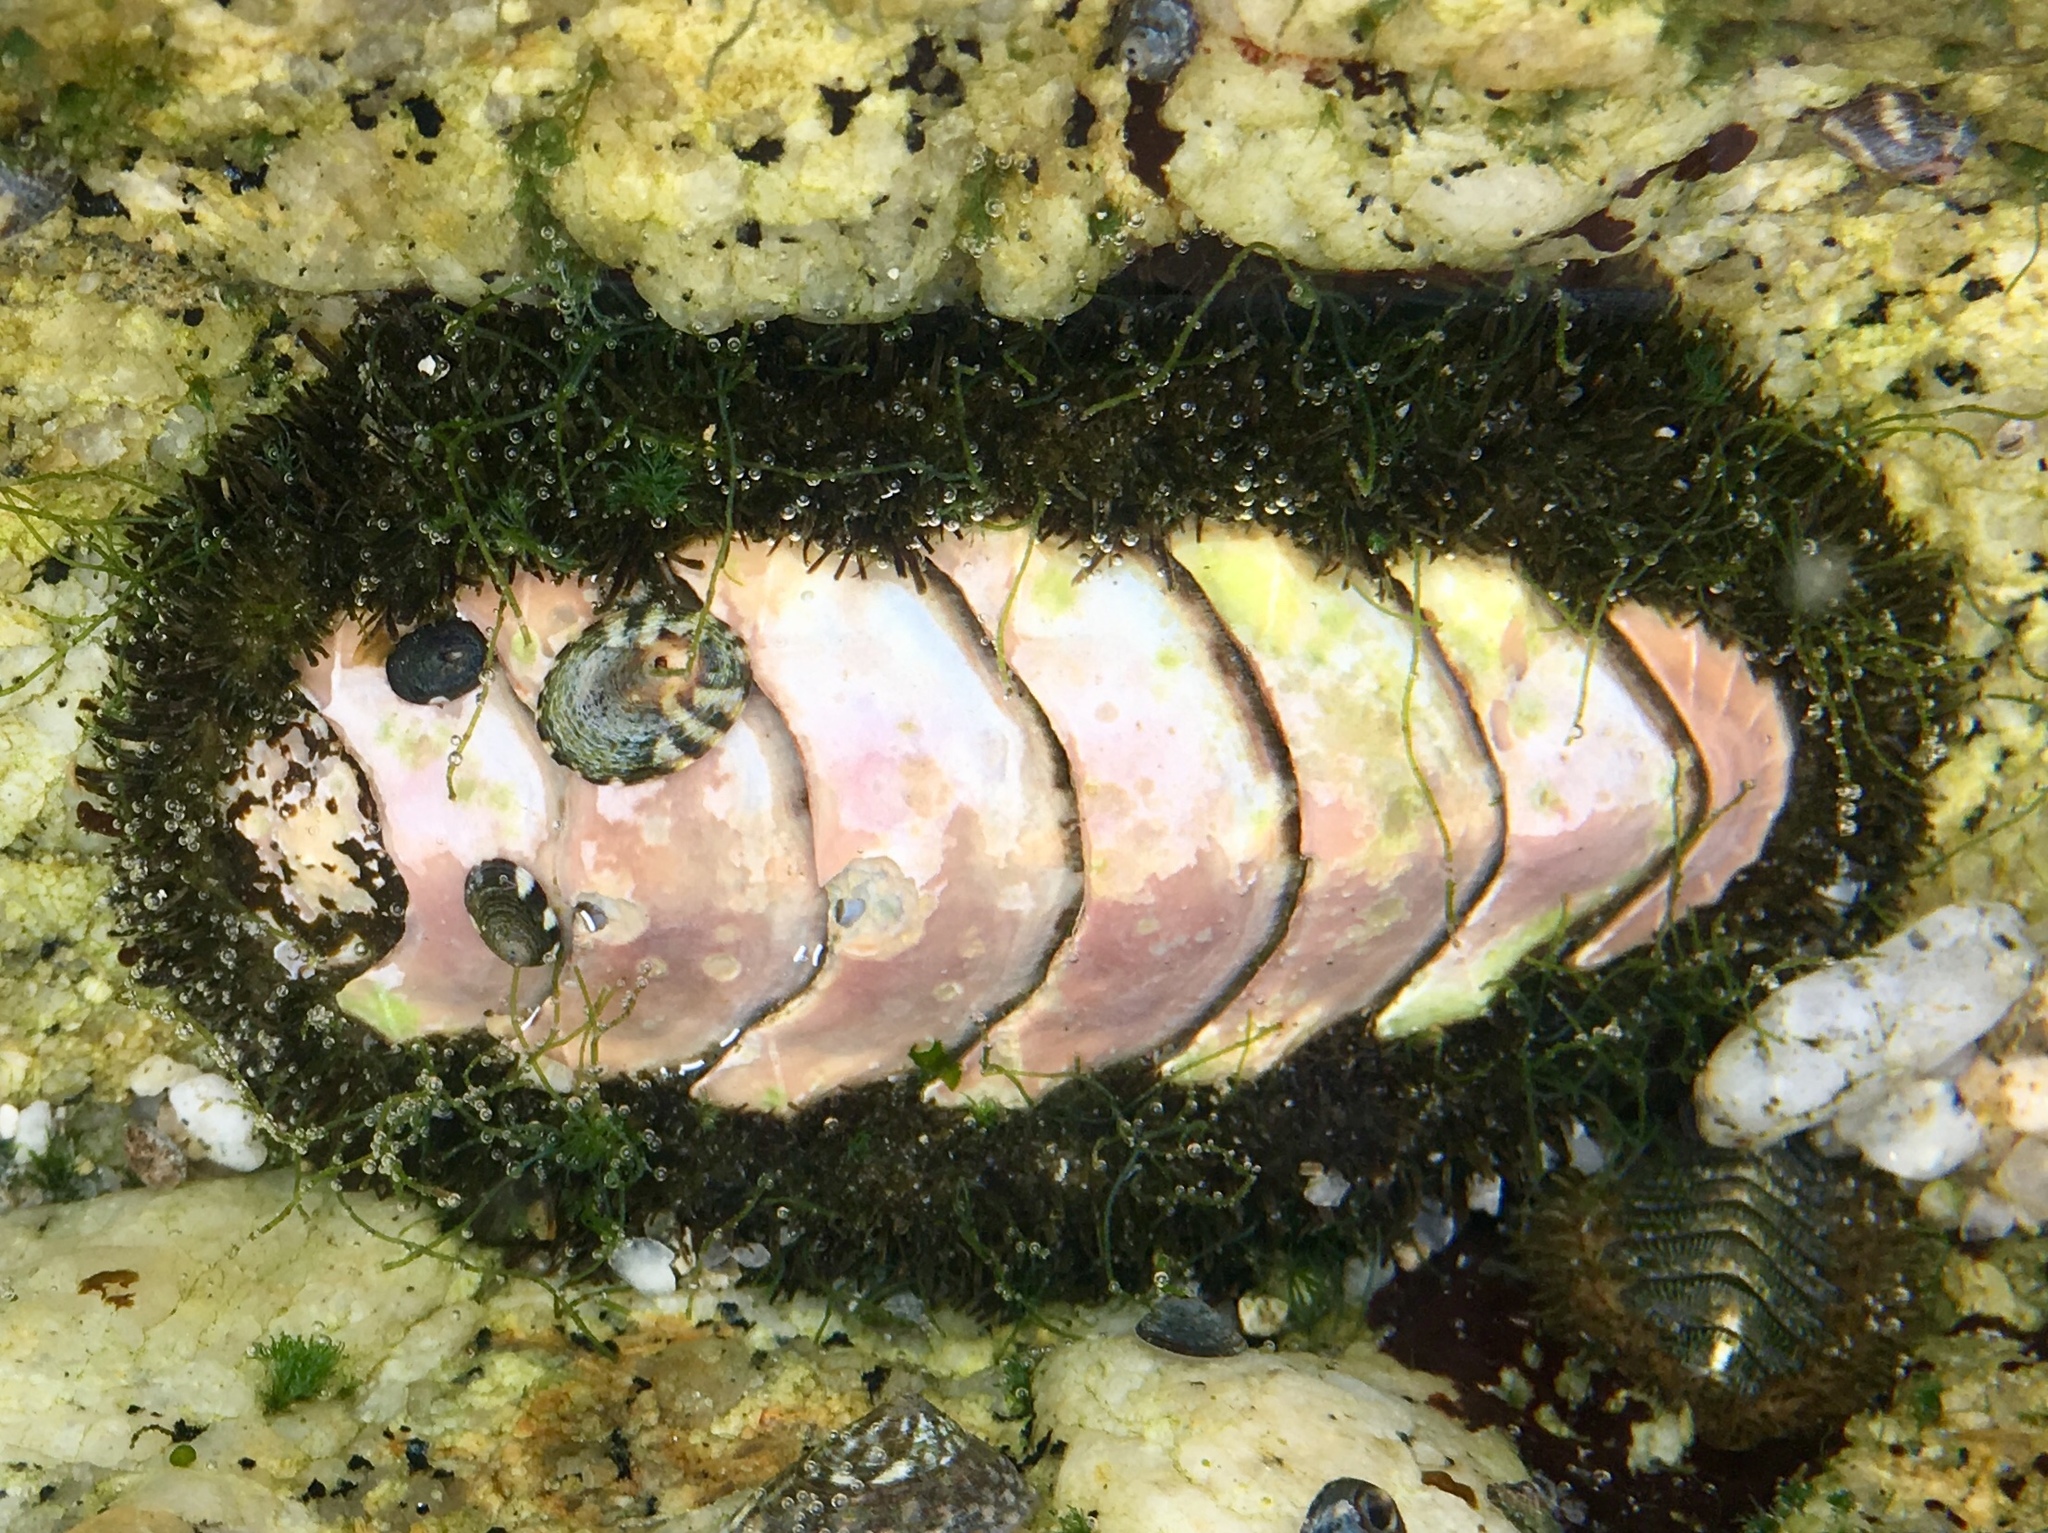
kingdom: Animalia
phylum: Mollusca
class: Polyplacophora
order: Chitonida
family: Mopaliidae
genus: Mopalia
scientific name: Mopalia muscosa
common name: Mossy chiton
